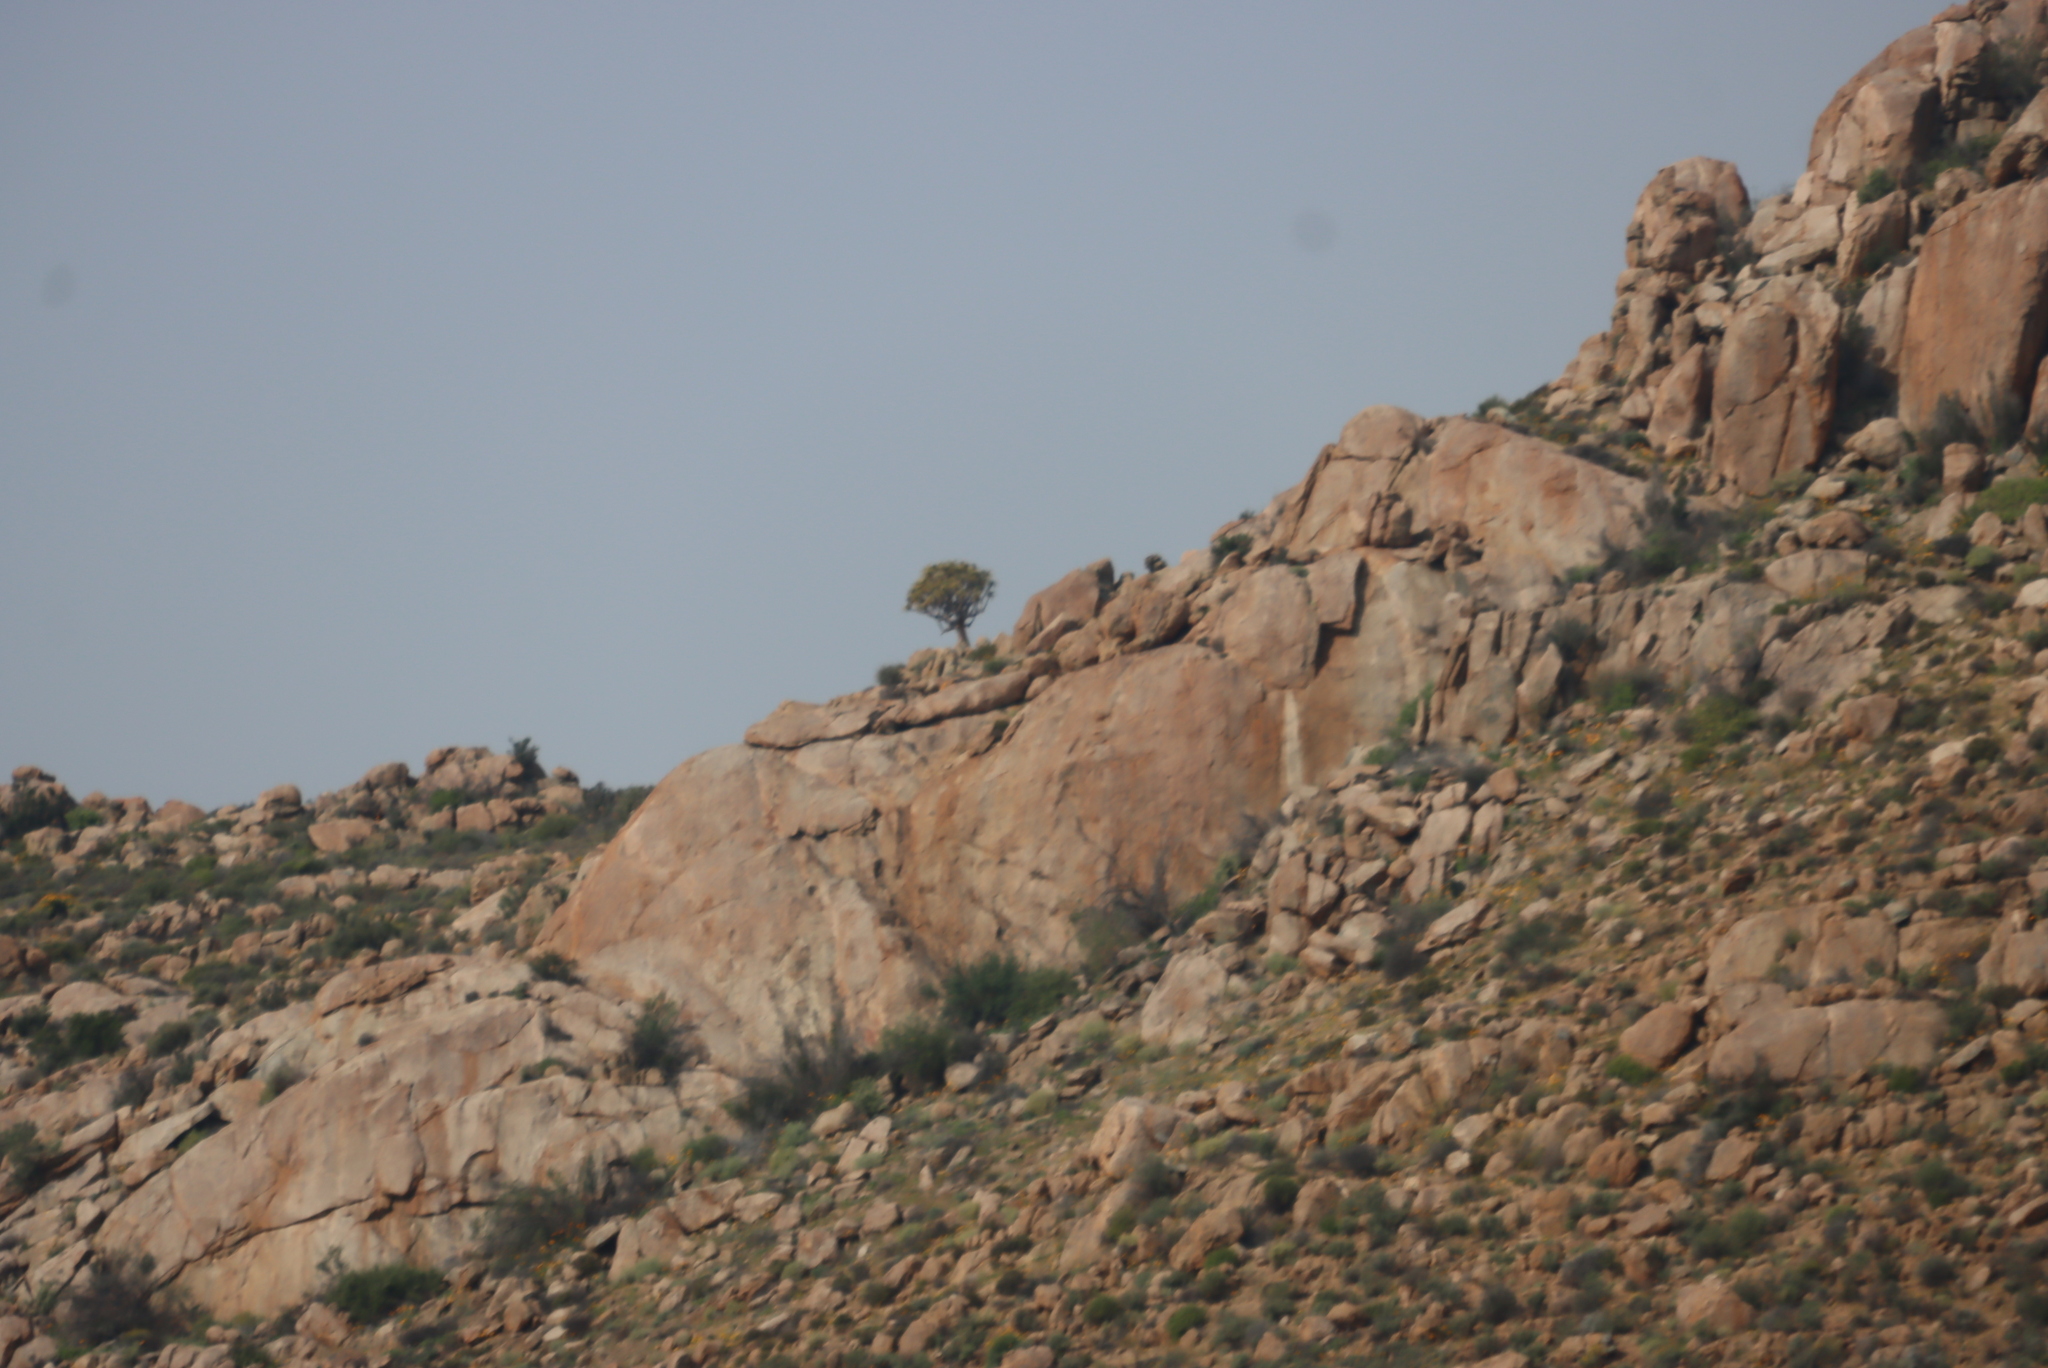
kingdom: Plantae
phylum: Tracheophyta
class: Liliopsida
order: Asparagales
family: Asphodelaceae
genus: Aloidendron
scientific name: Aloidendron dichotomum
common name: Quiver tree
